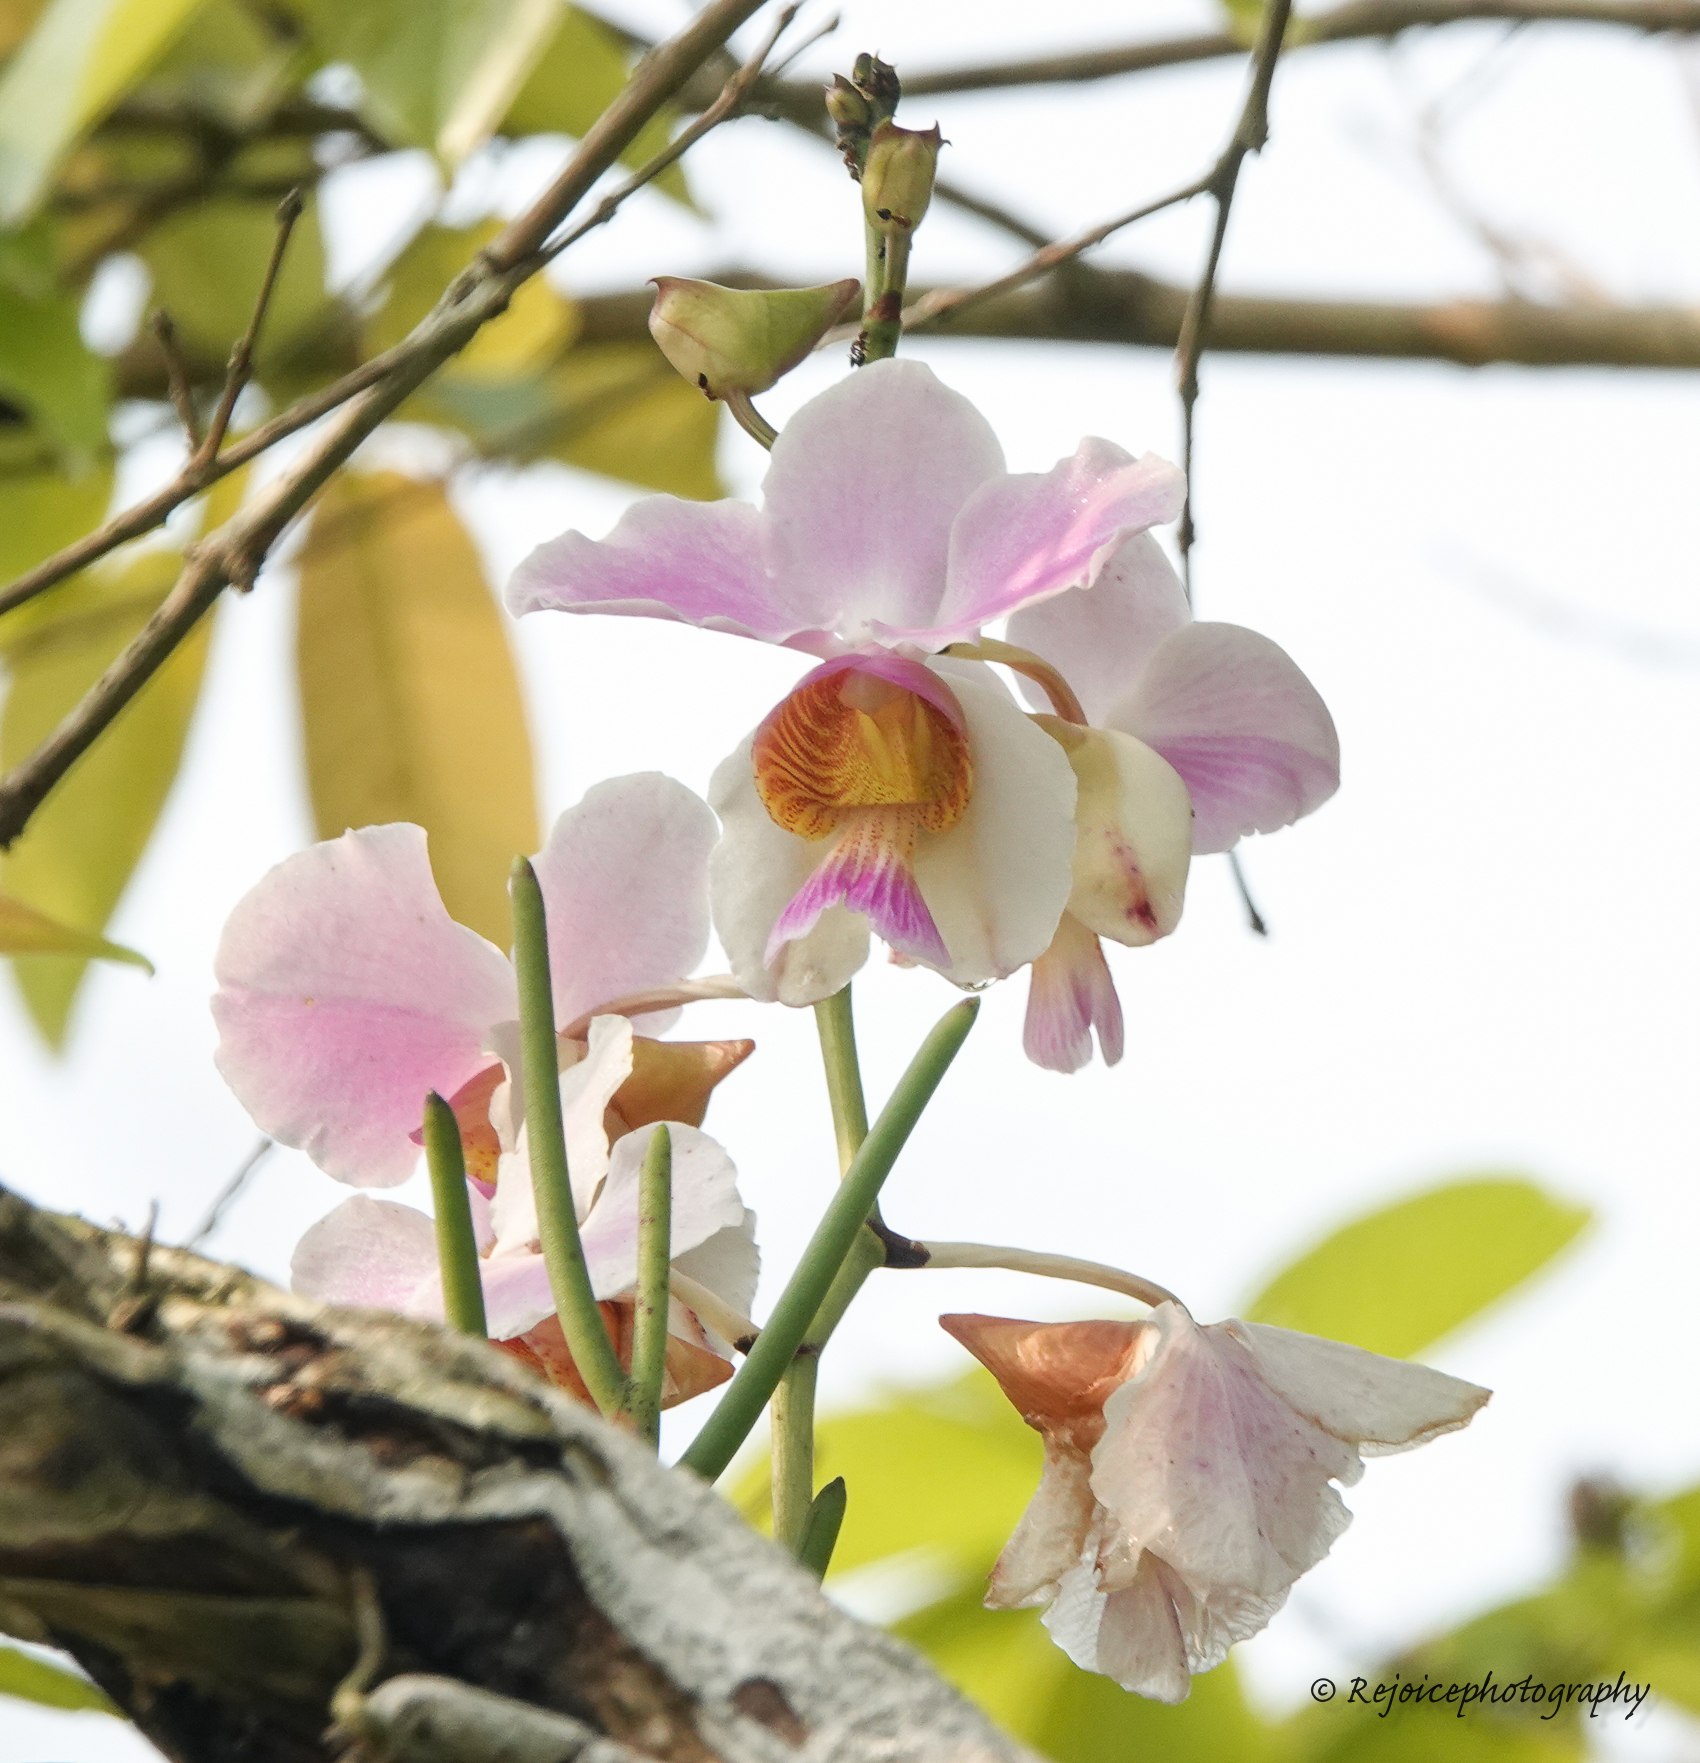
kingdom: Plantae
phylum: Tracheophyta
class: Liliopsida
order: Asparagales
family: Orchidaceae
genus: Papilionanthe
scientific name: Papilionanthe teres
